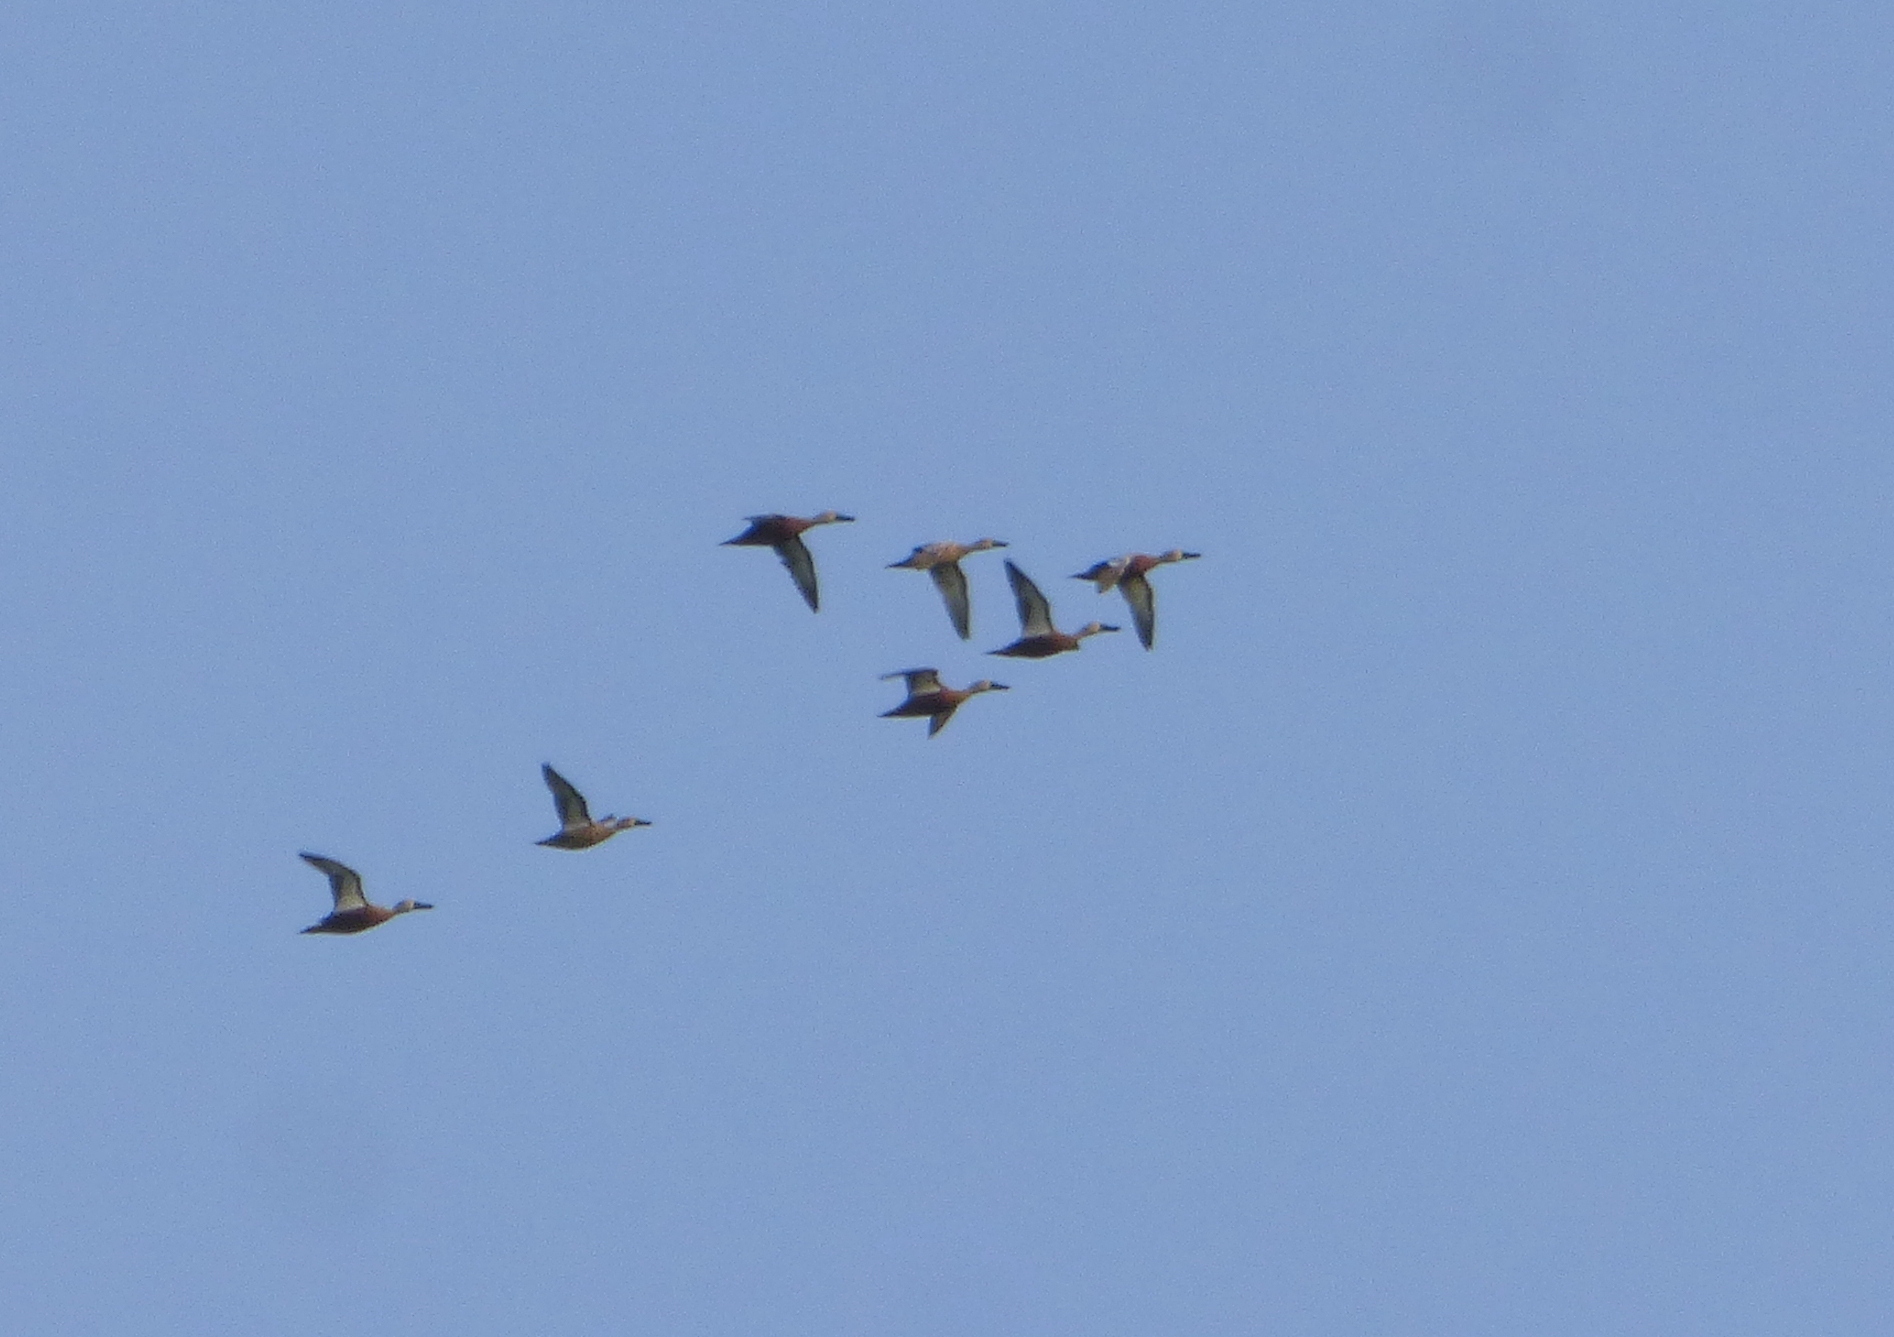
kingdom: Animalia
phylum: Chordata
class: Aves
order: Anseriformes
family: Anatidae
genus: Spatula
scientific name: Spatula platalea
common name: Red shoveler
